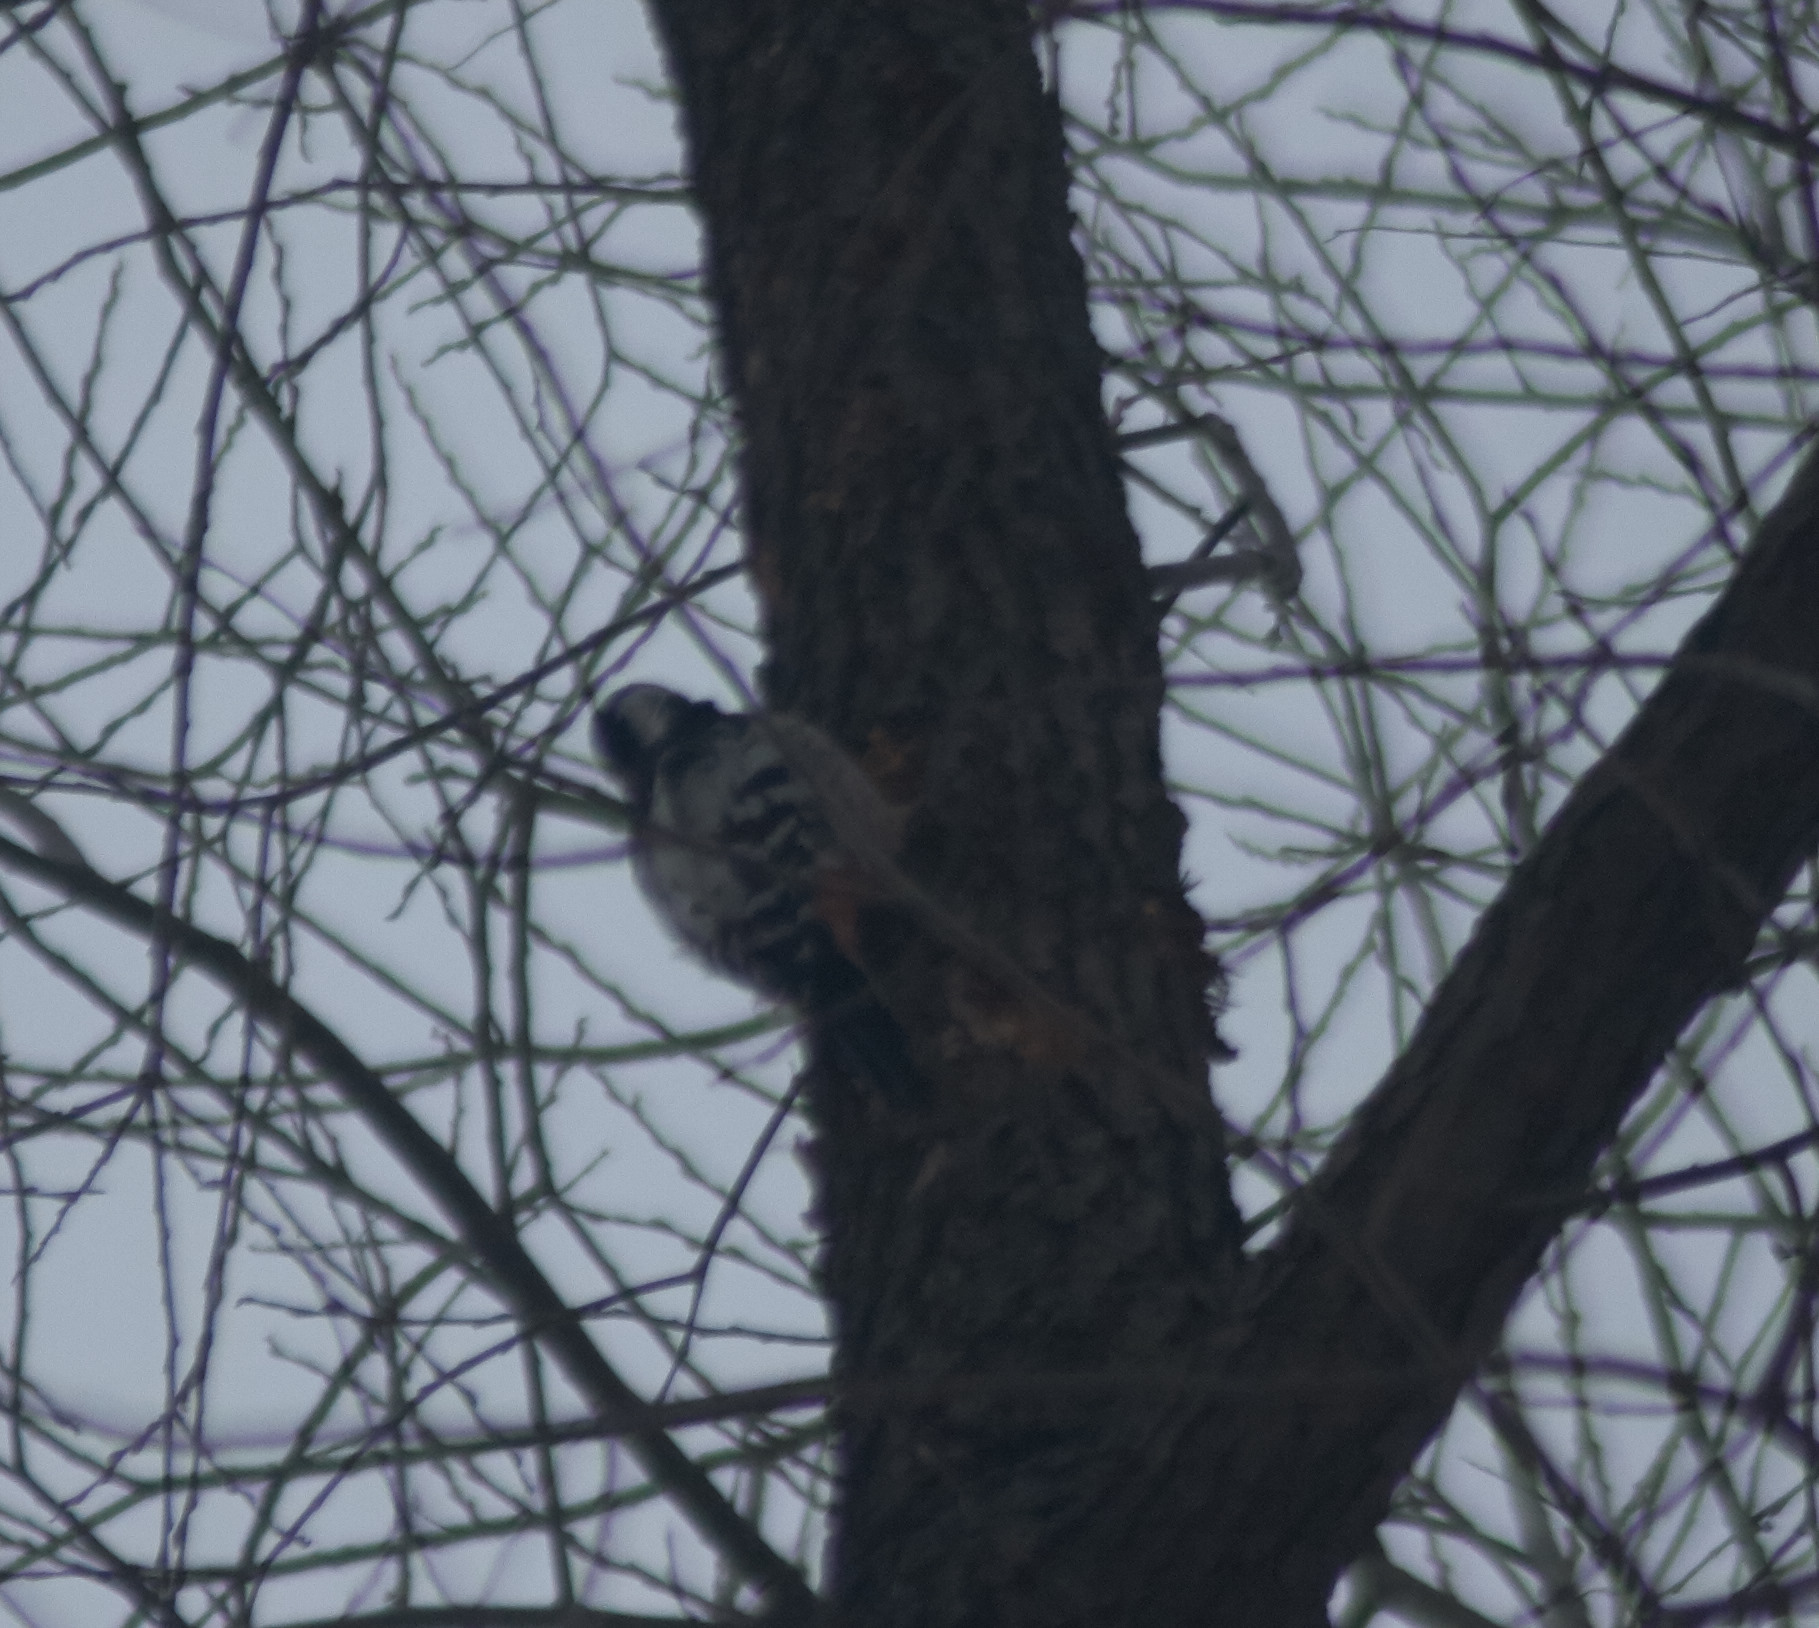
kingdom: Animalia
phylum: Chordata
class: Aves
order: Piciformes
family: Picidae
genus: Dendrocopos
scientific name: Dendrocopos leucotos
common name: White-backed woodpecker
